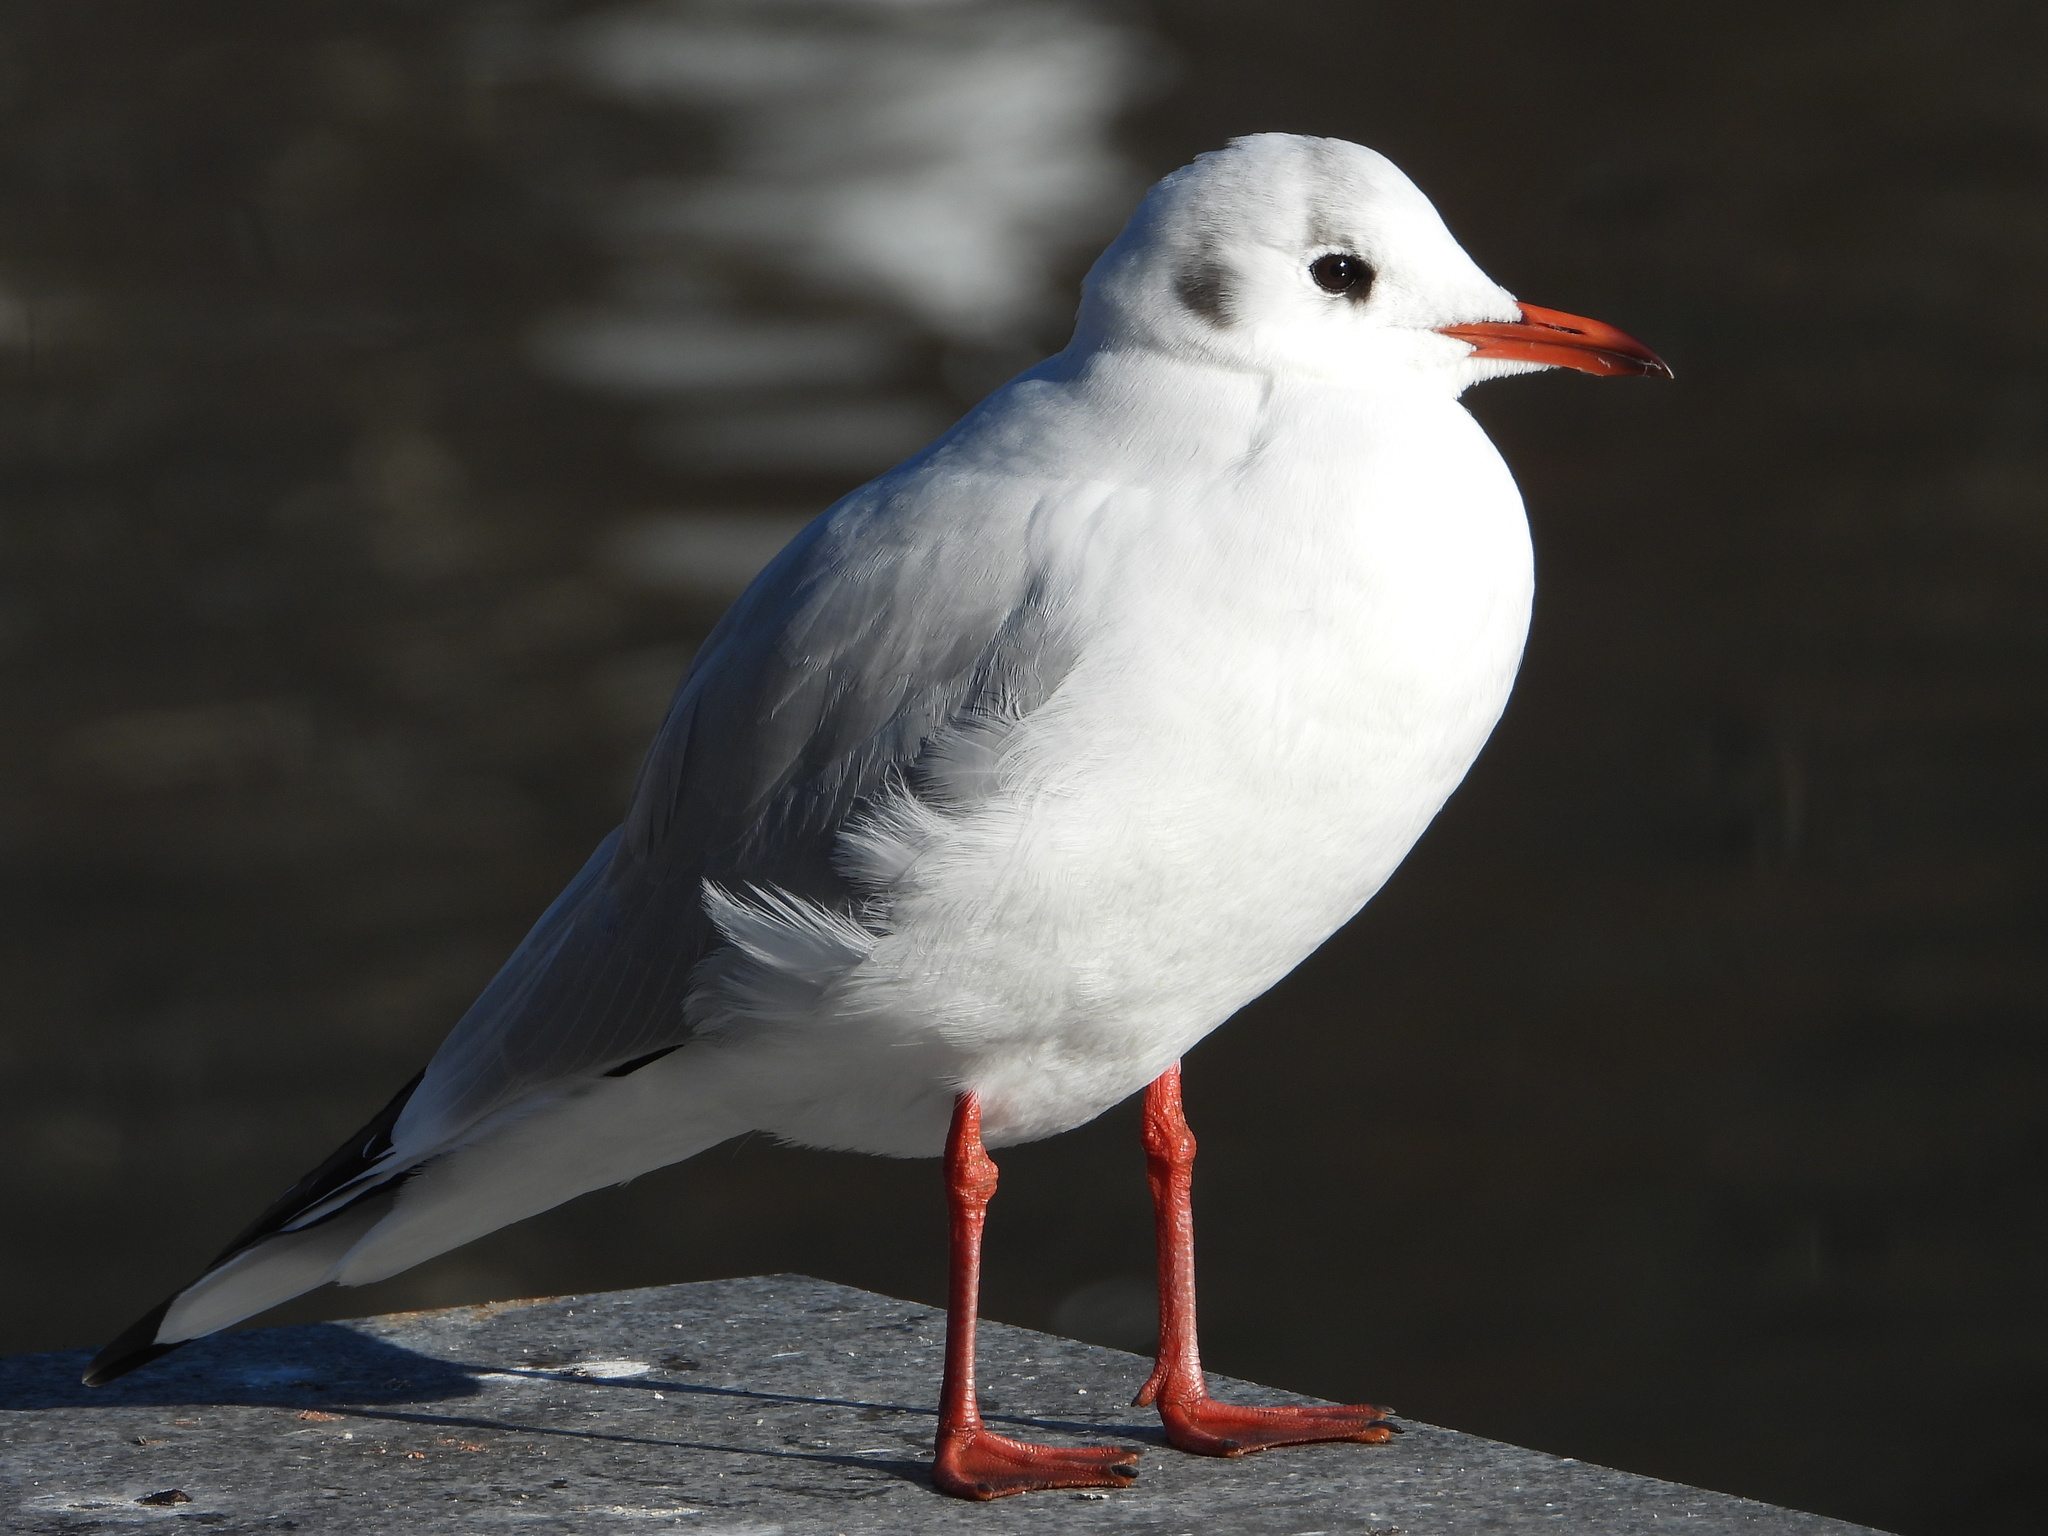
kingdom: Animalia
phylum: Chordata
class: Aves
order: Charadriiformes
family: Laridae
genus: Chroicocephalus
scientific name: Chroicocephalus ridibundus
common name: Black-headed gull
